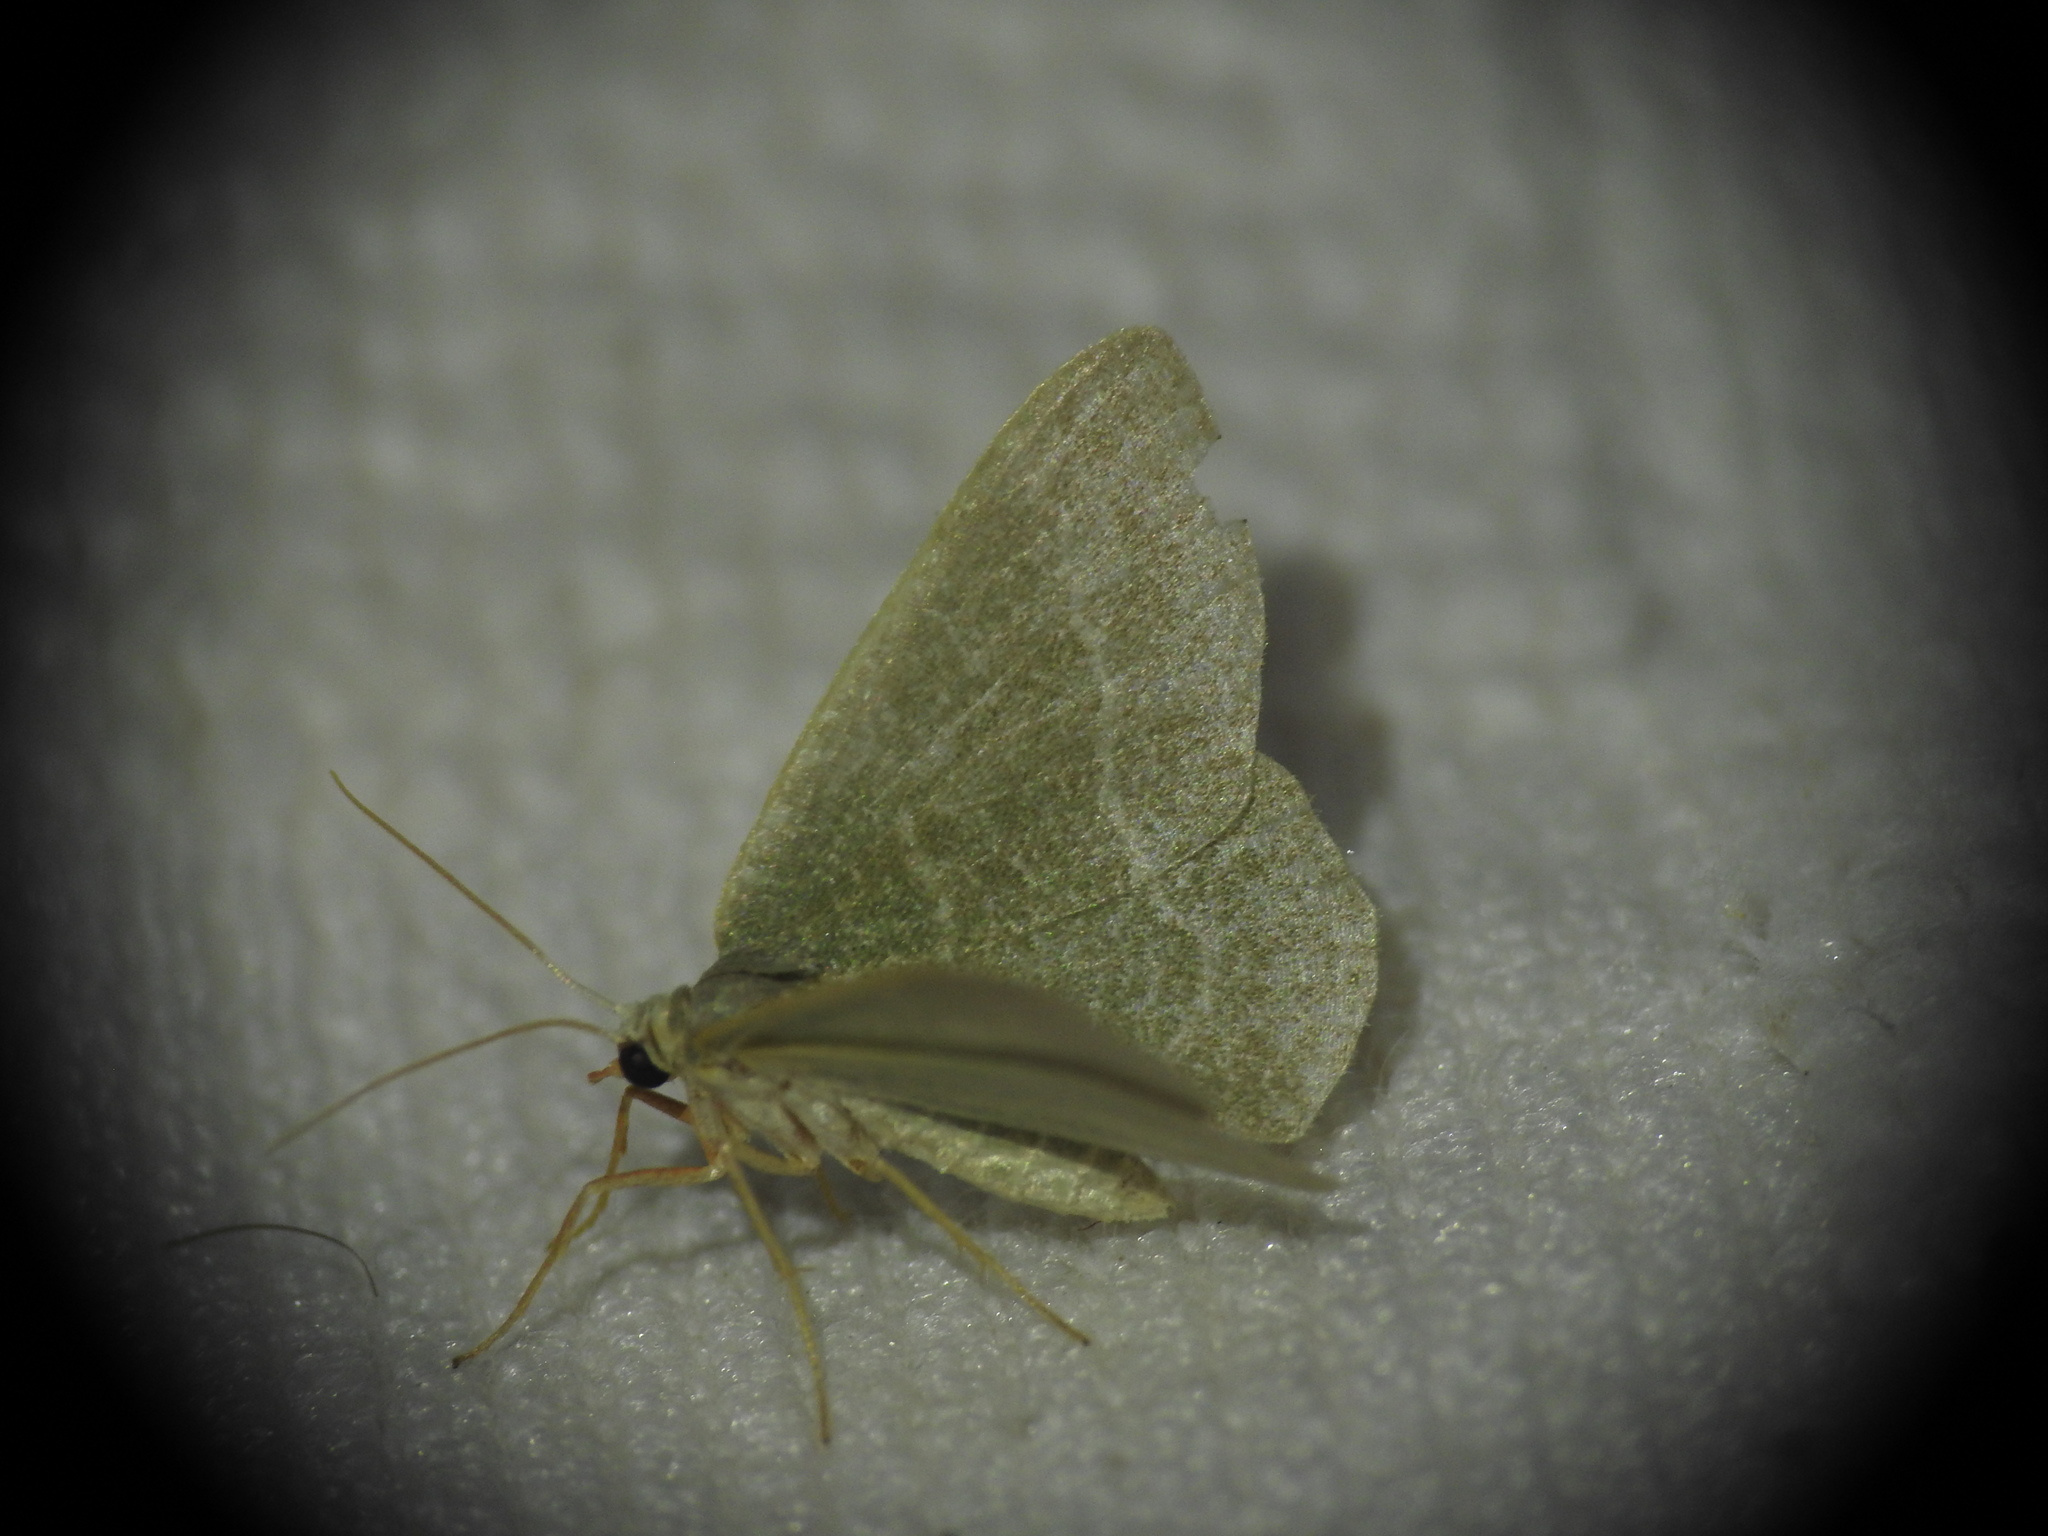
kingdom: Animalia
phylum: Arthropoda
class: Insecta
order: Lepidoptera
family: Geometridae
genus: Chlorissa
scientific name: Chlorissa etruscaria
